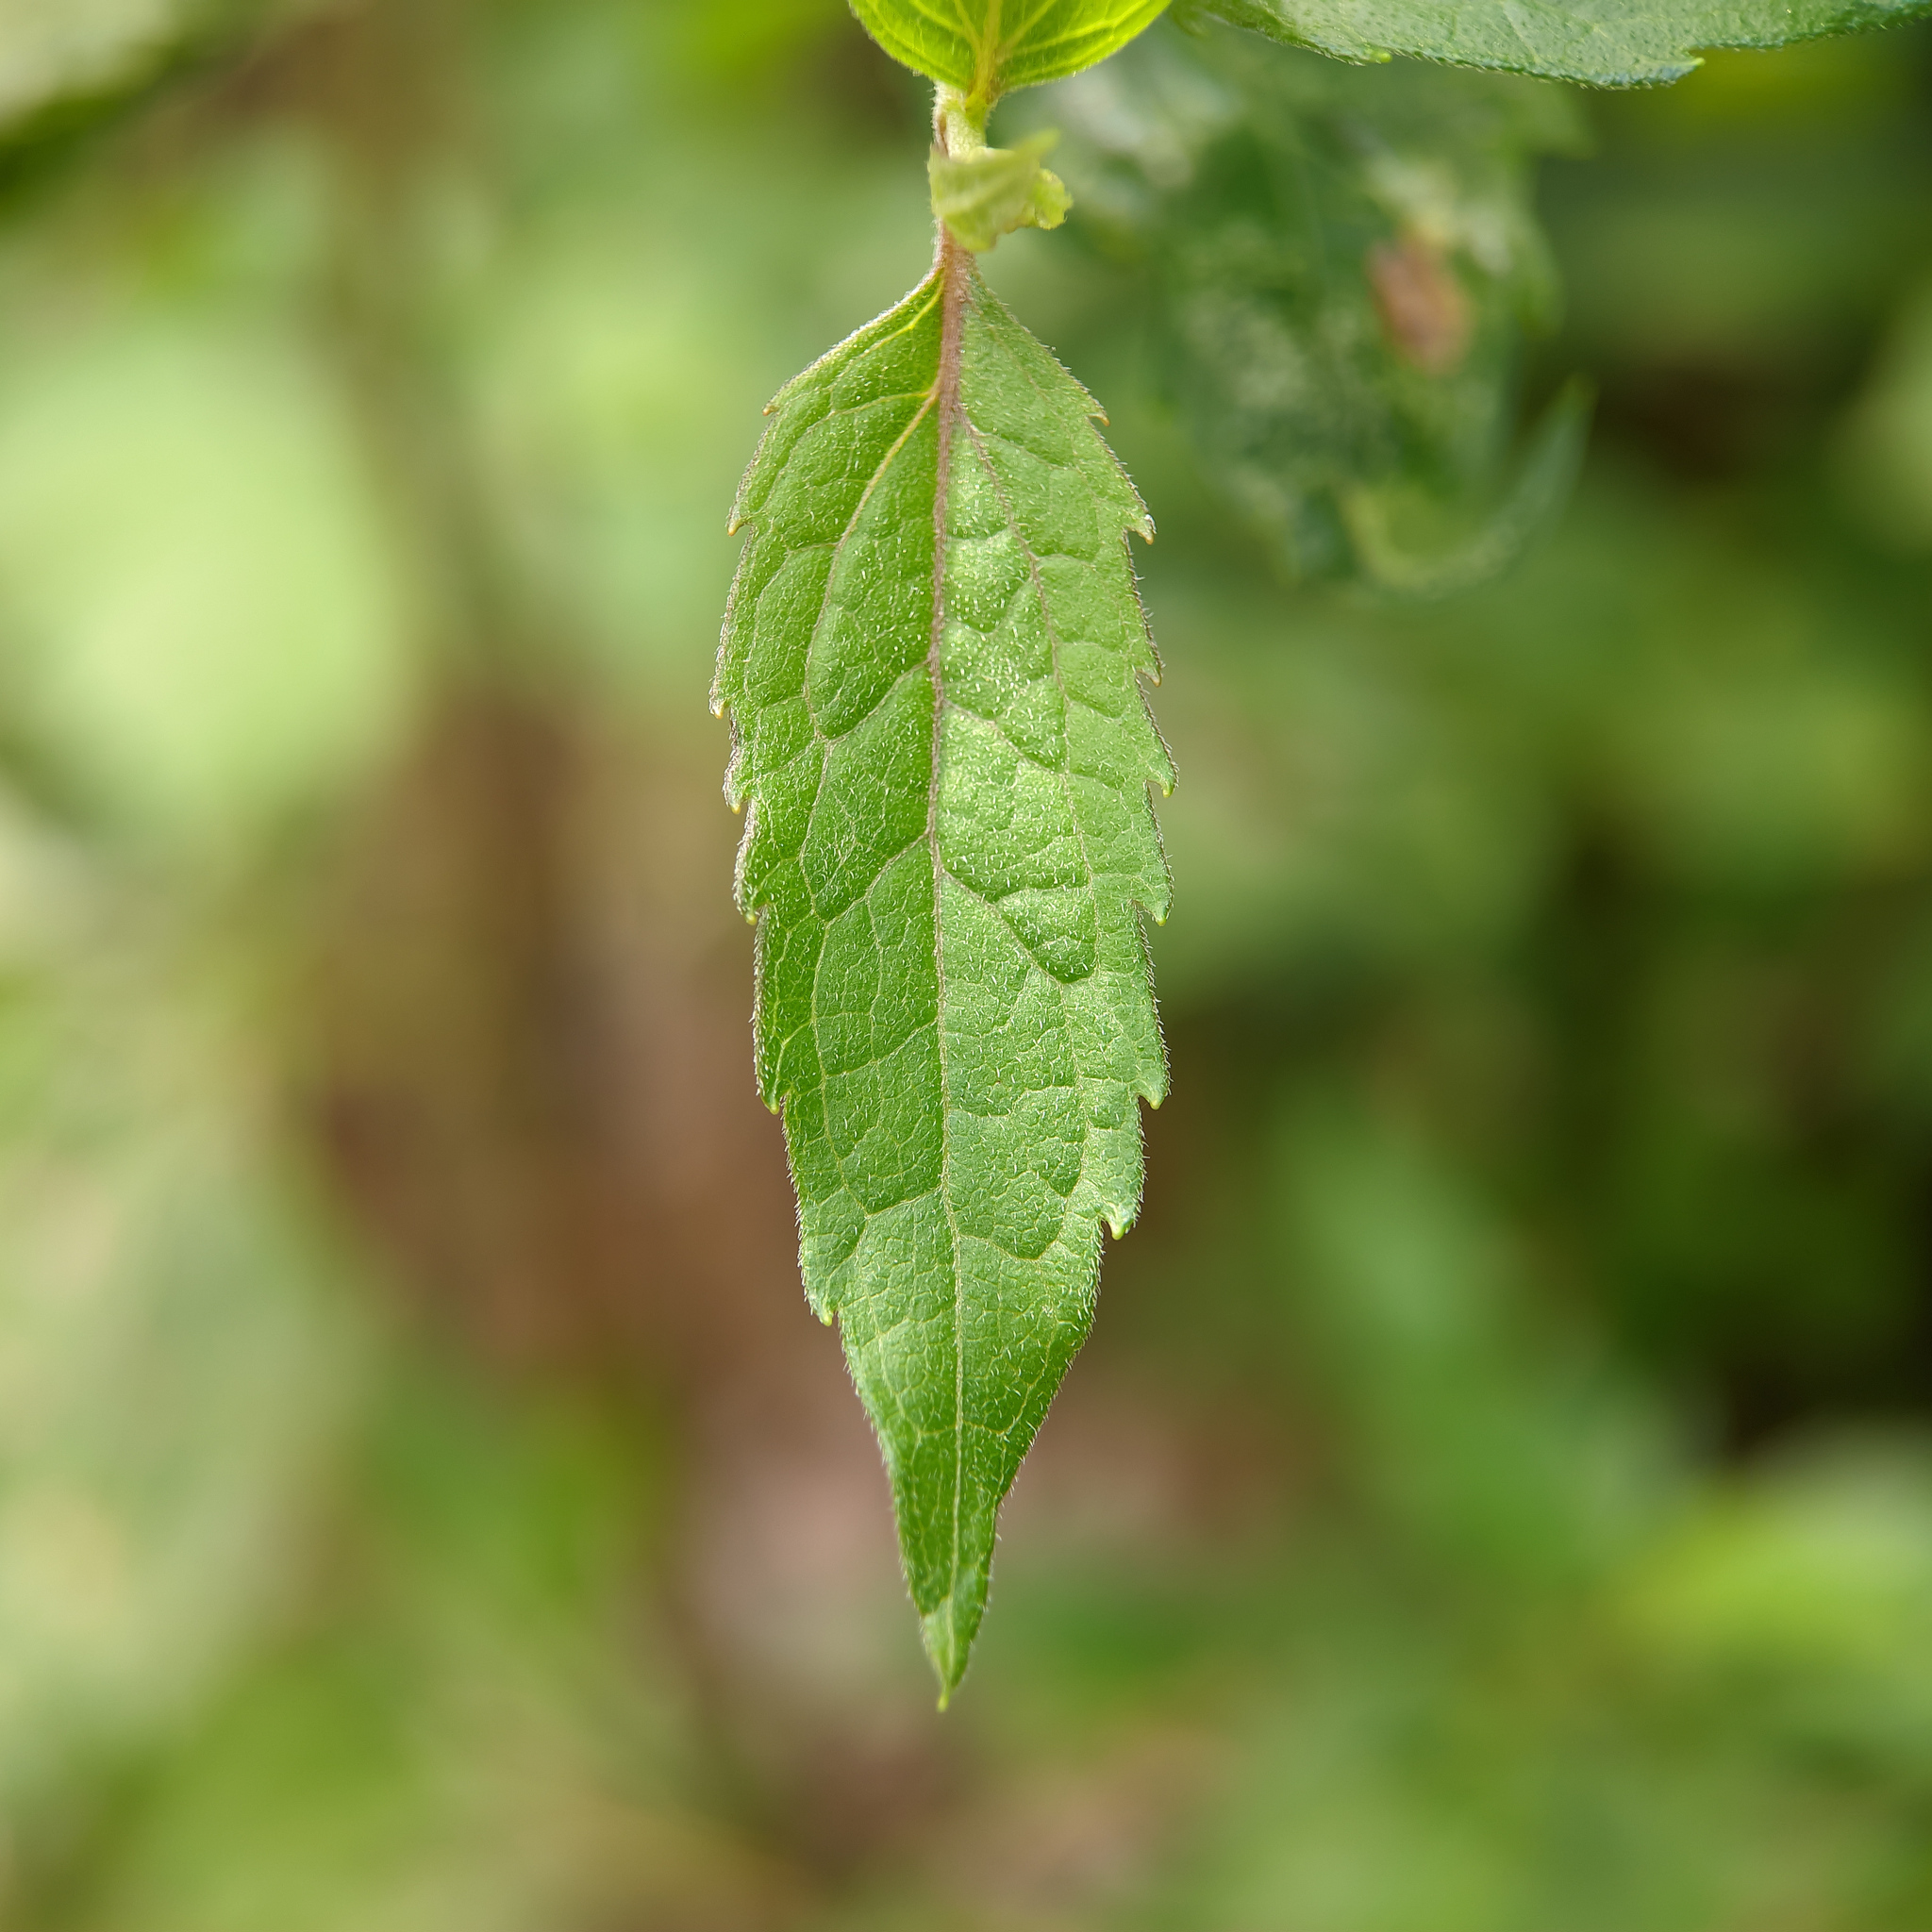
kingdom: Plantae
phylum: Tracheophyta
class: Magnoliopsida
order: Asterales
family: Asteraceae
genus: Eupatorium
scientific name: Eupatorium cannabinum
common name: Hemp-agrimony
